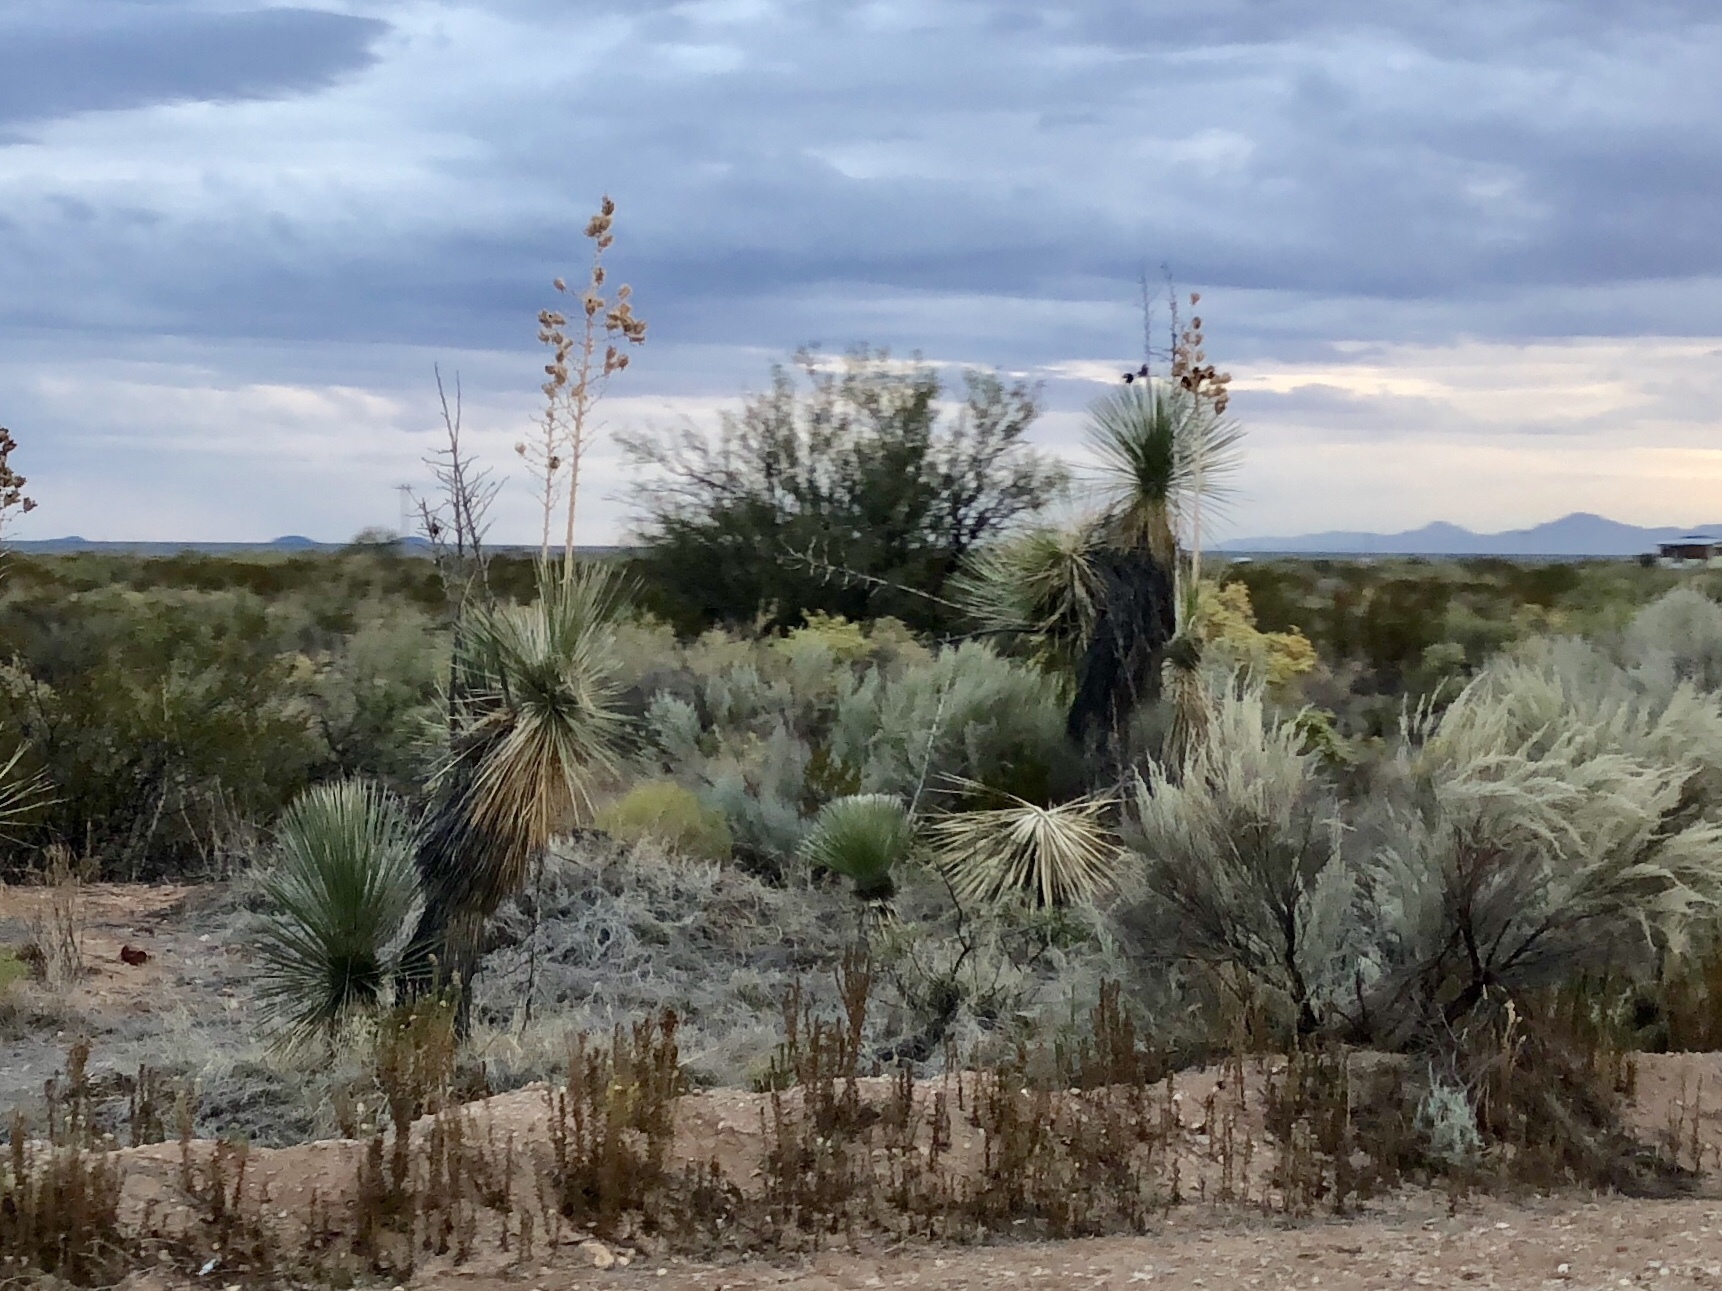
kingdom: Plantae
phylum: Tracheophyta
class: Liliopsida
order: Asparagales
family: Asparagaceae
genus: Yucca
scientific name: Yucca elata
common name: Palmella
